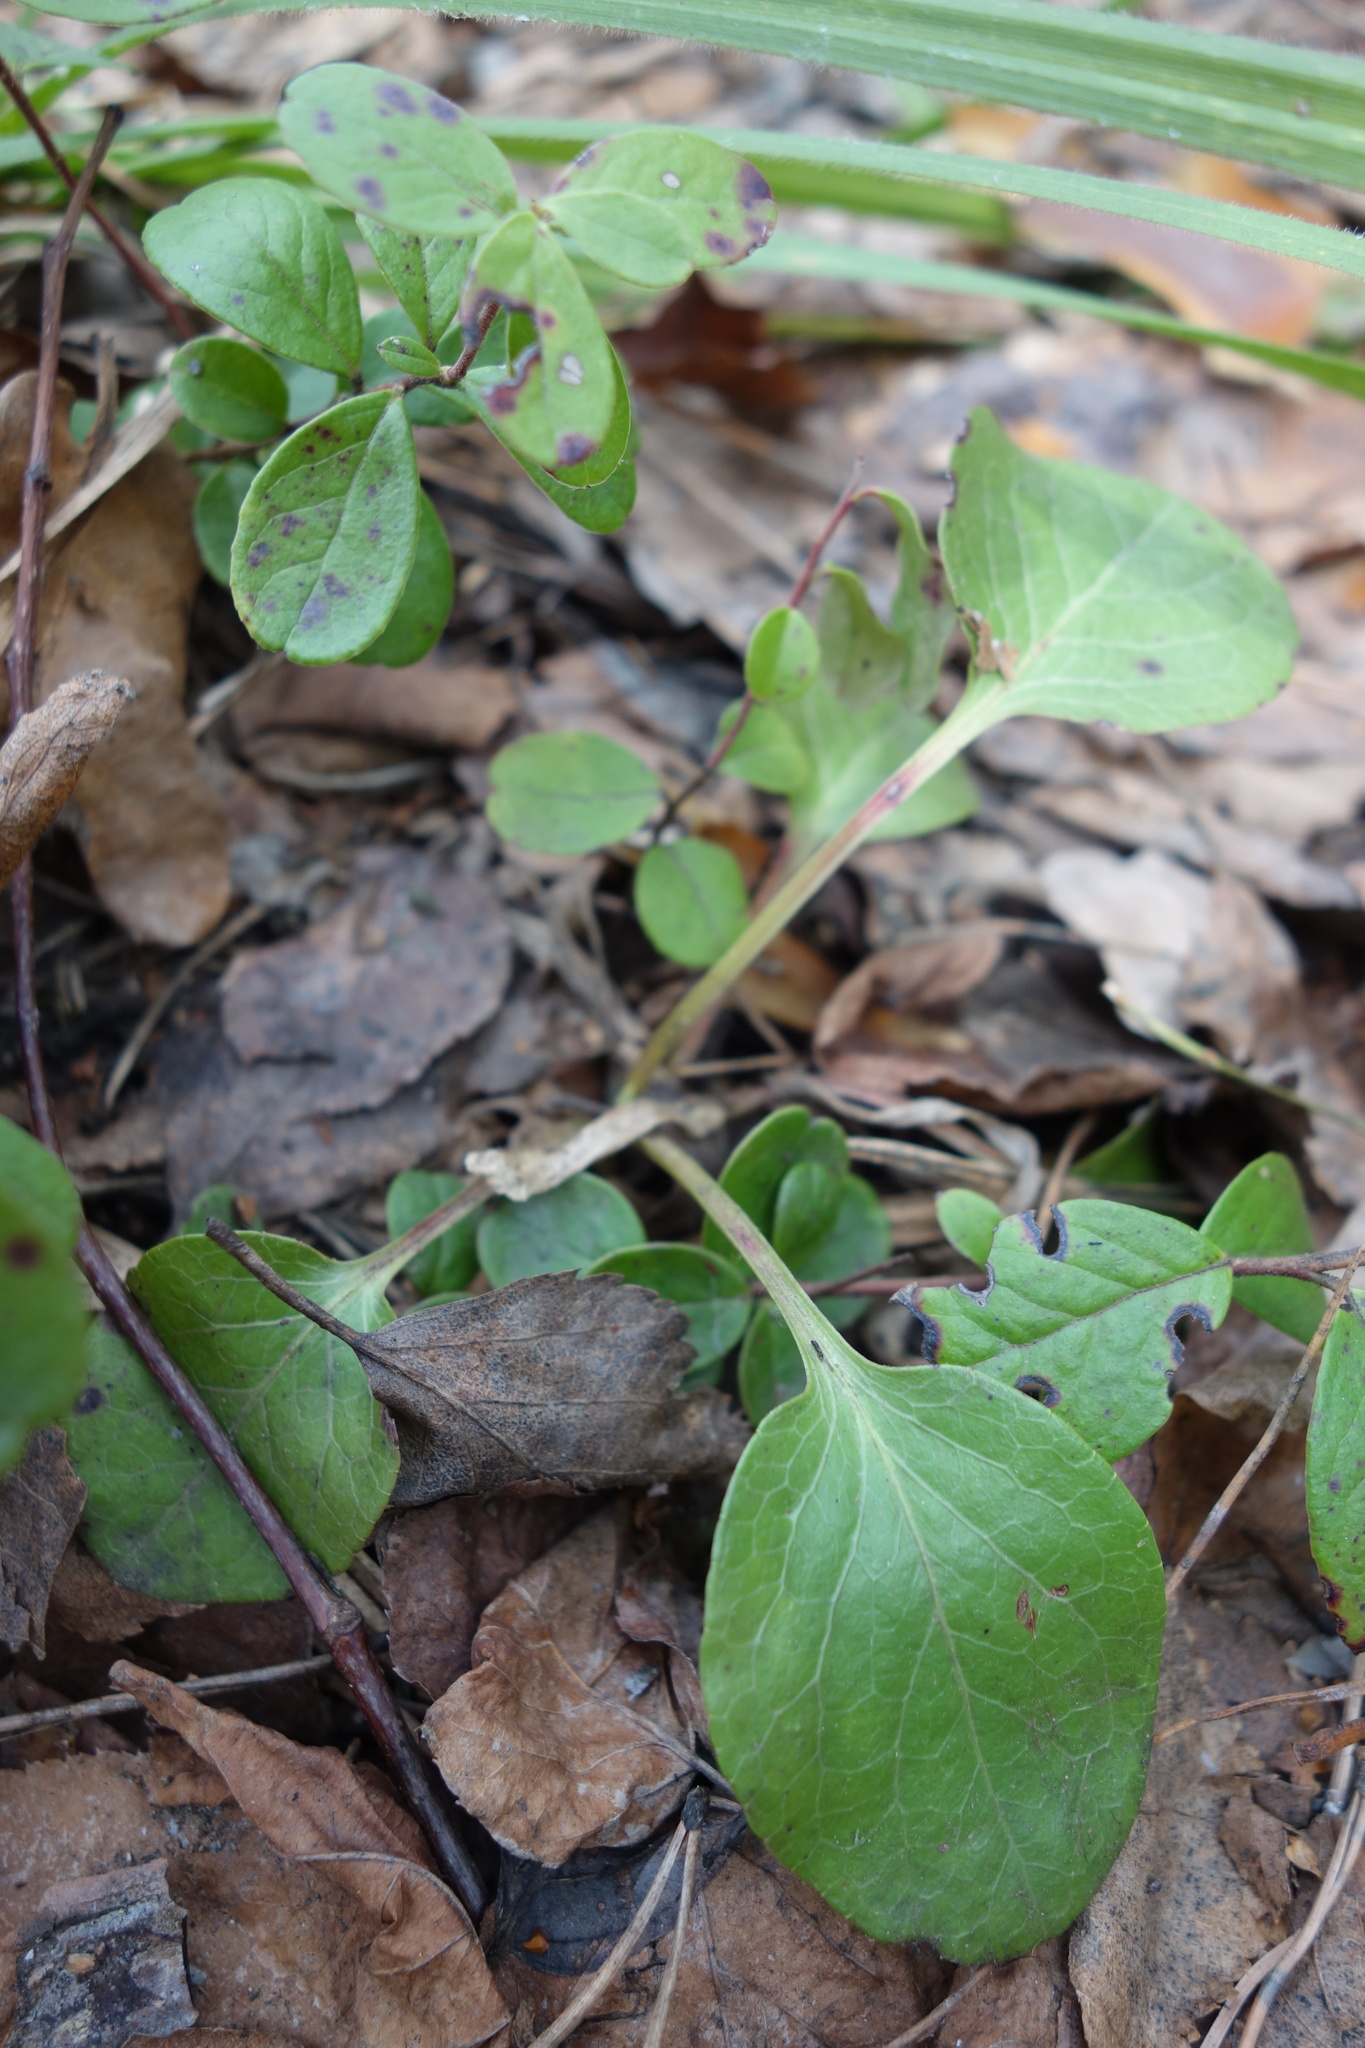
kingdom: Plantae
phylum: Tracheophyta
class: Magnoliopsida
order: Ericales
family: Ericaceae
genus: Pyrola
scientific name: Pyrola rotundifolia
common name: Round-leaved wintergreen
